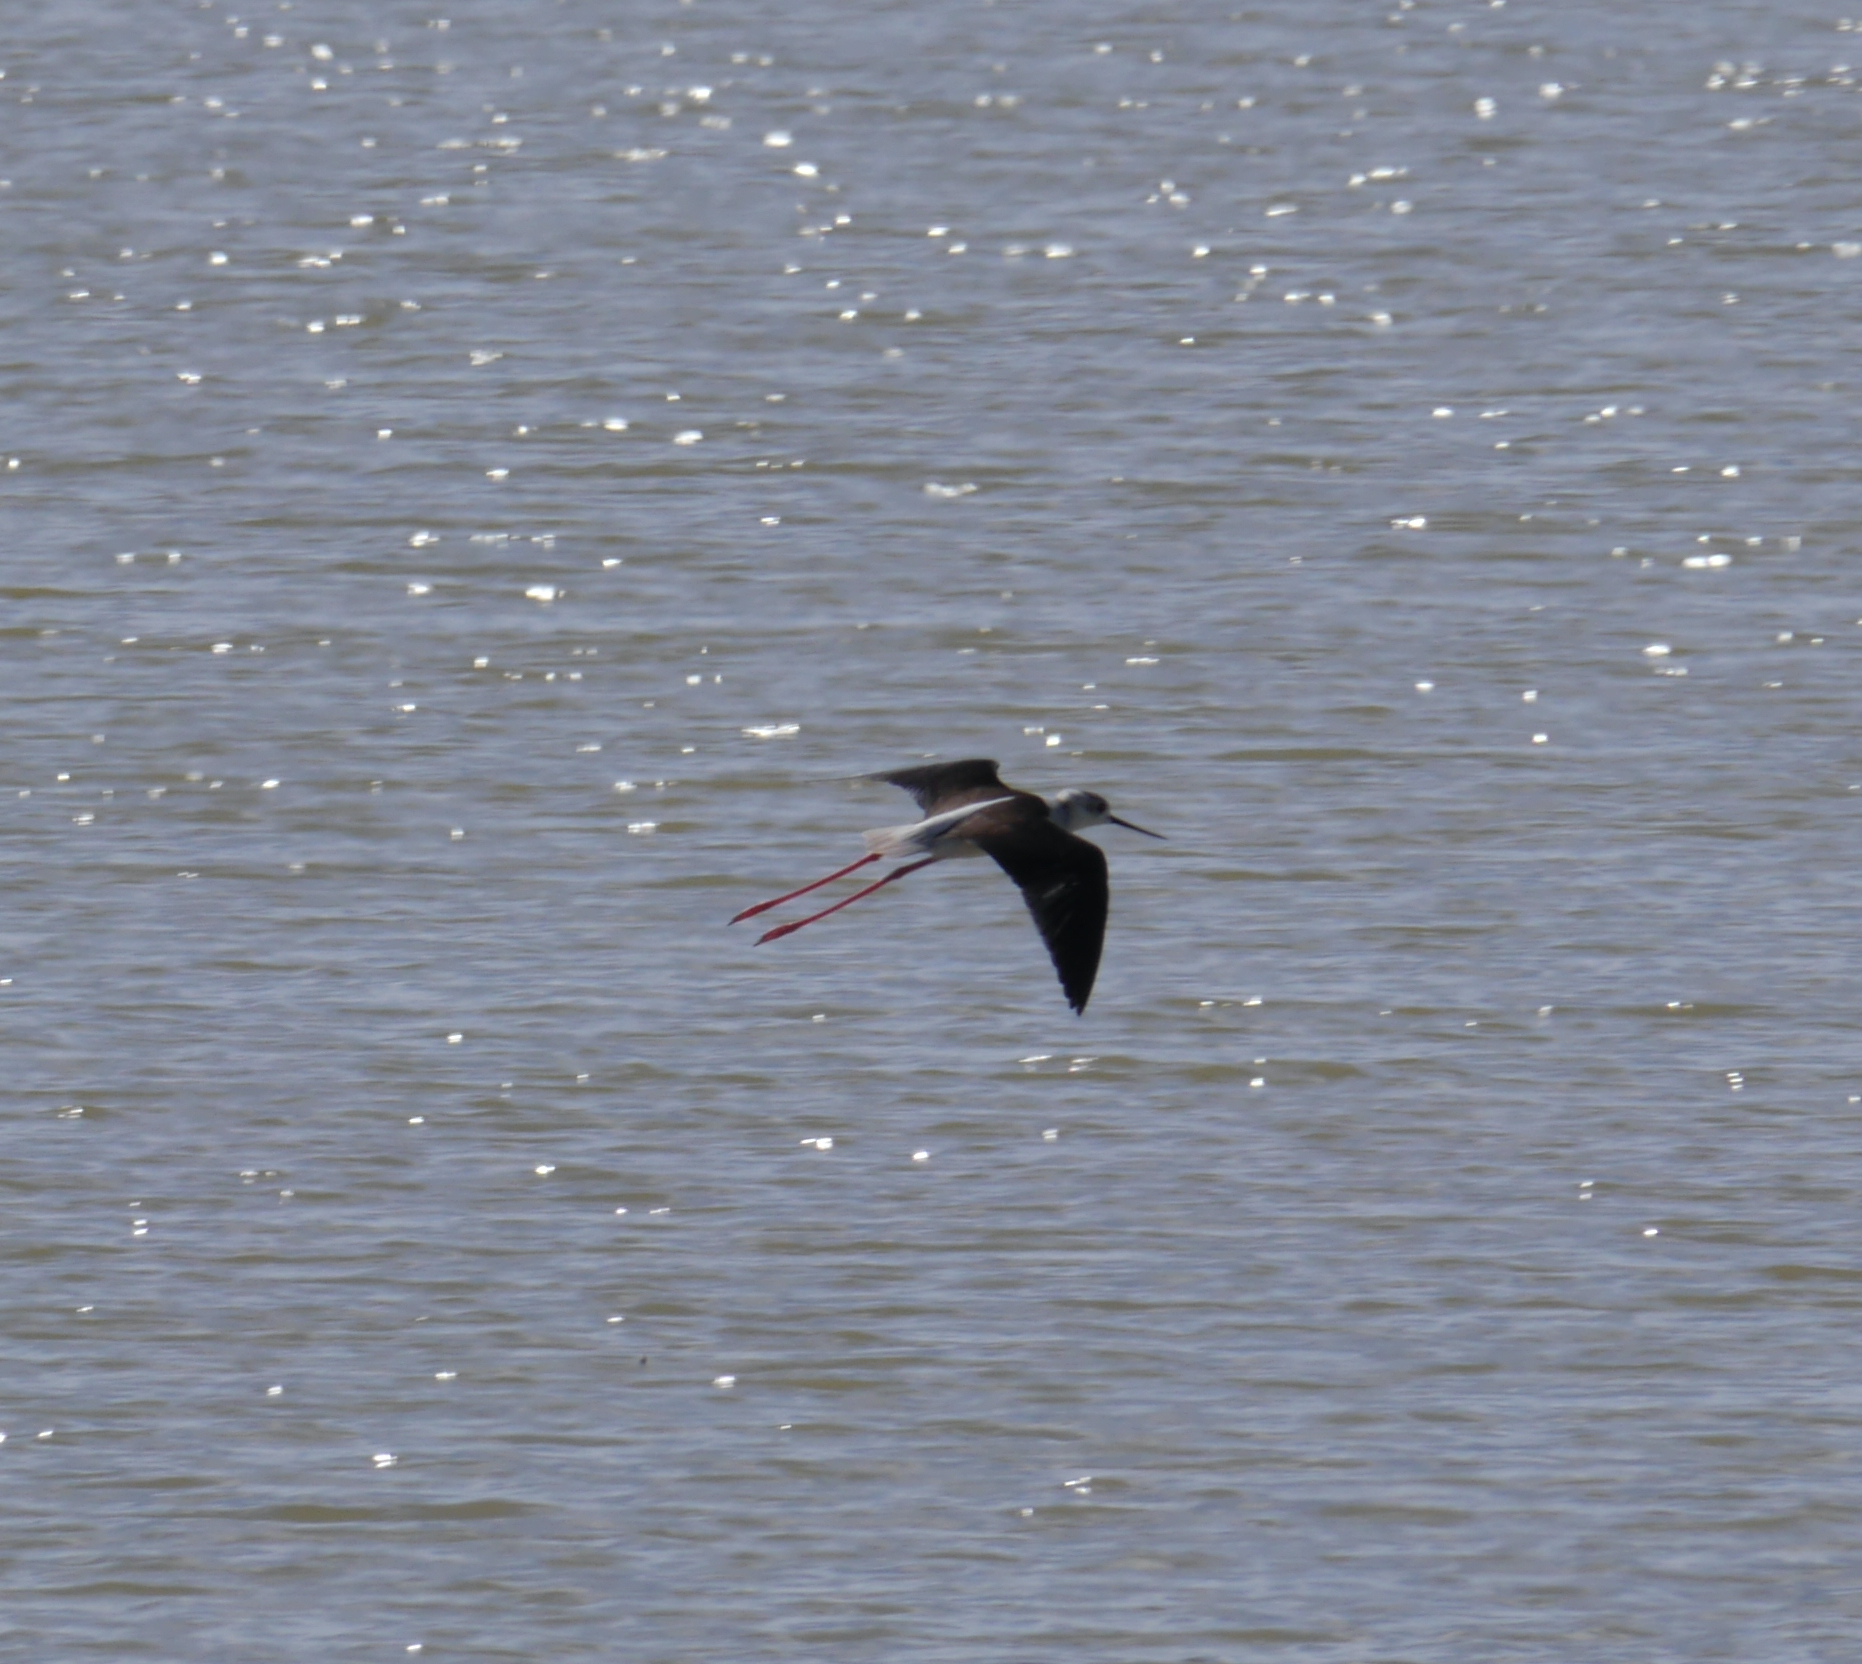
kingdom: Animalia
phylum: Chordata
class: Aves
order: Charadriiformes
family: Recurvirostridae
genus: Himantopus
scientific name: Himantopus himantopus
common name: Black-winged stilt
